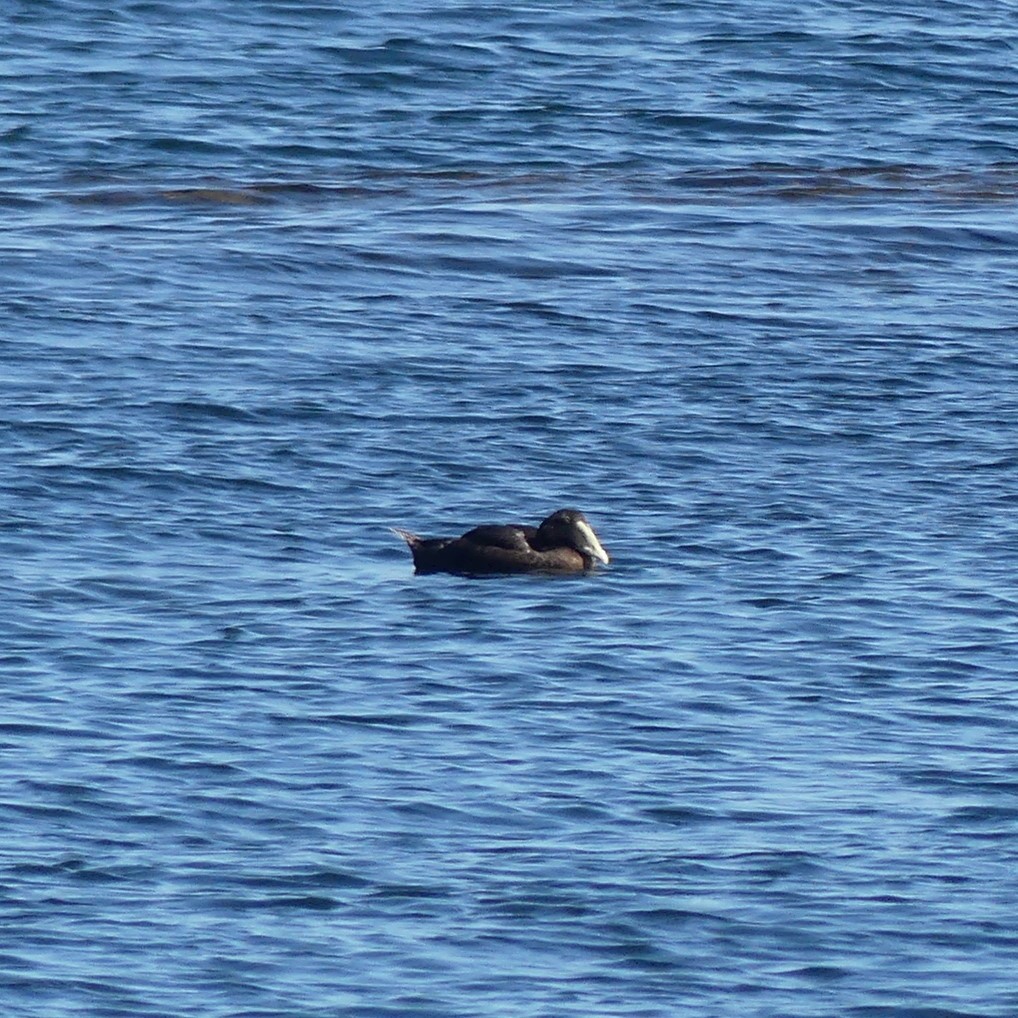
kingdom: Animalia
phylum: Chordata
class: Aves
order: Anseriformes
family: Anatidae
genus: Somateria
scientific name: Somateria mollissima
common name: Common eider
